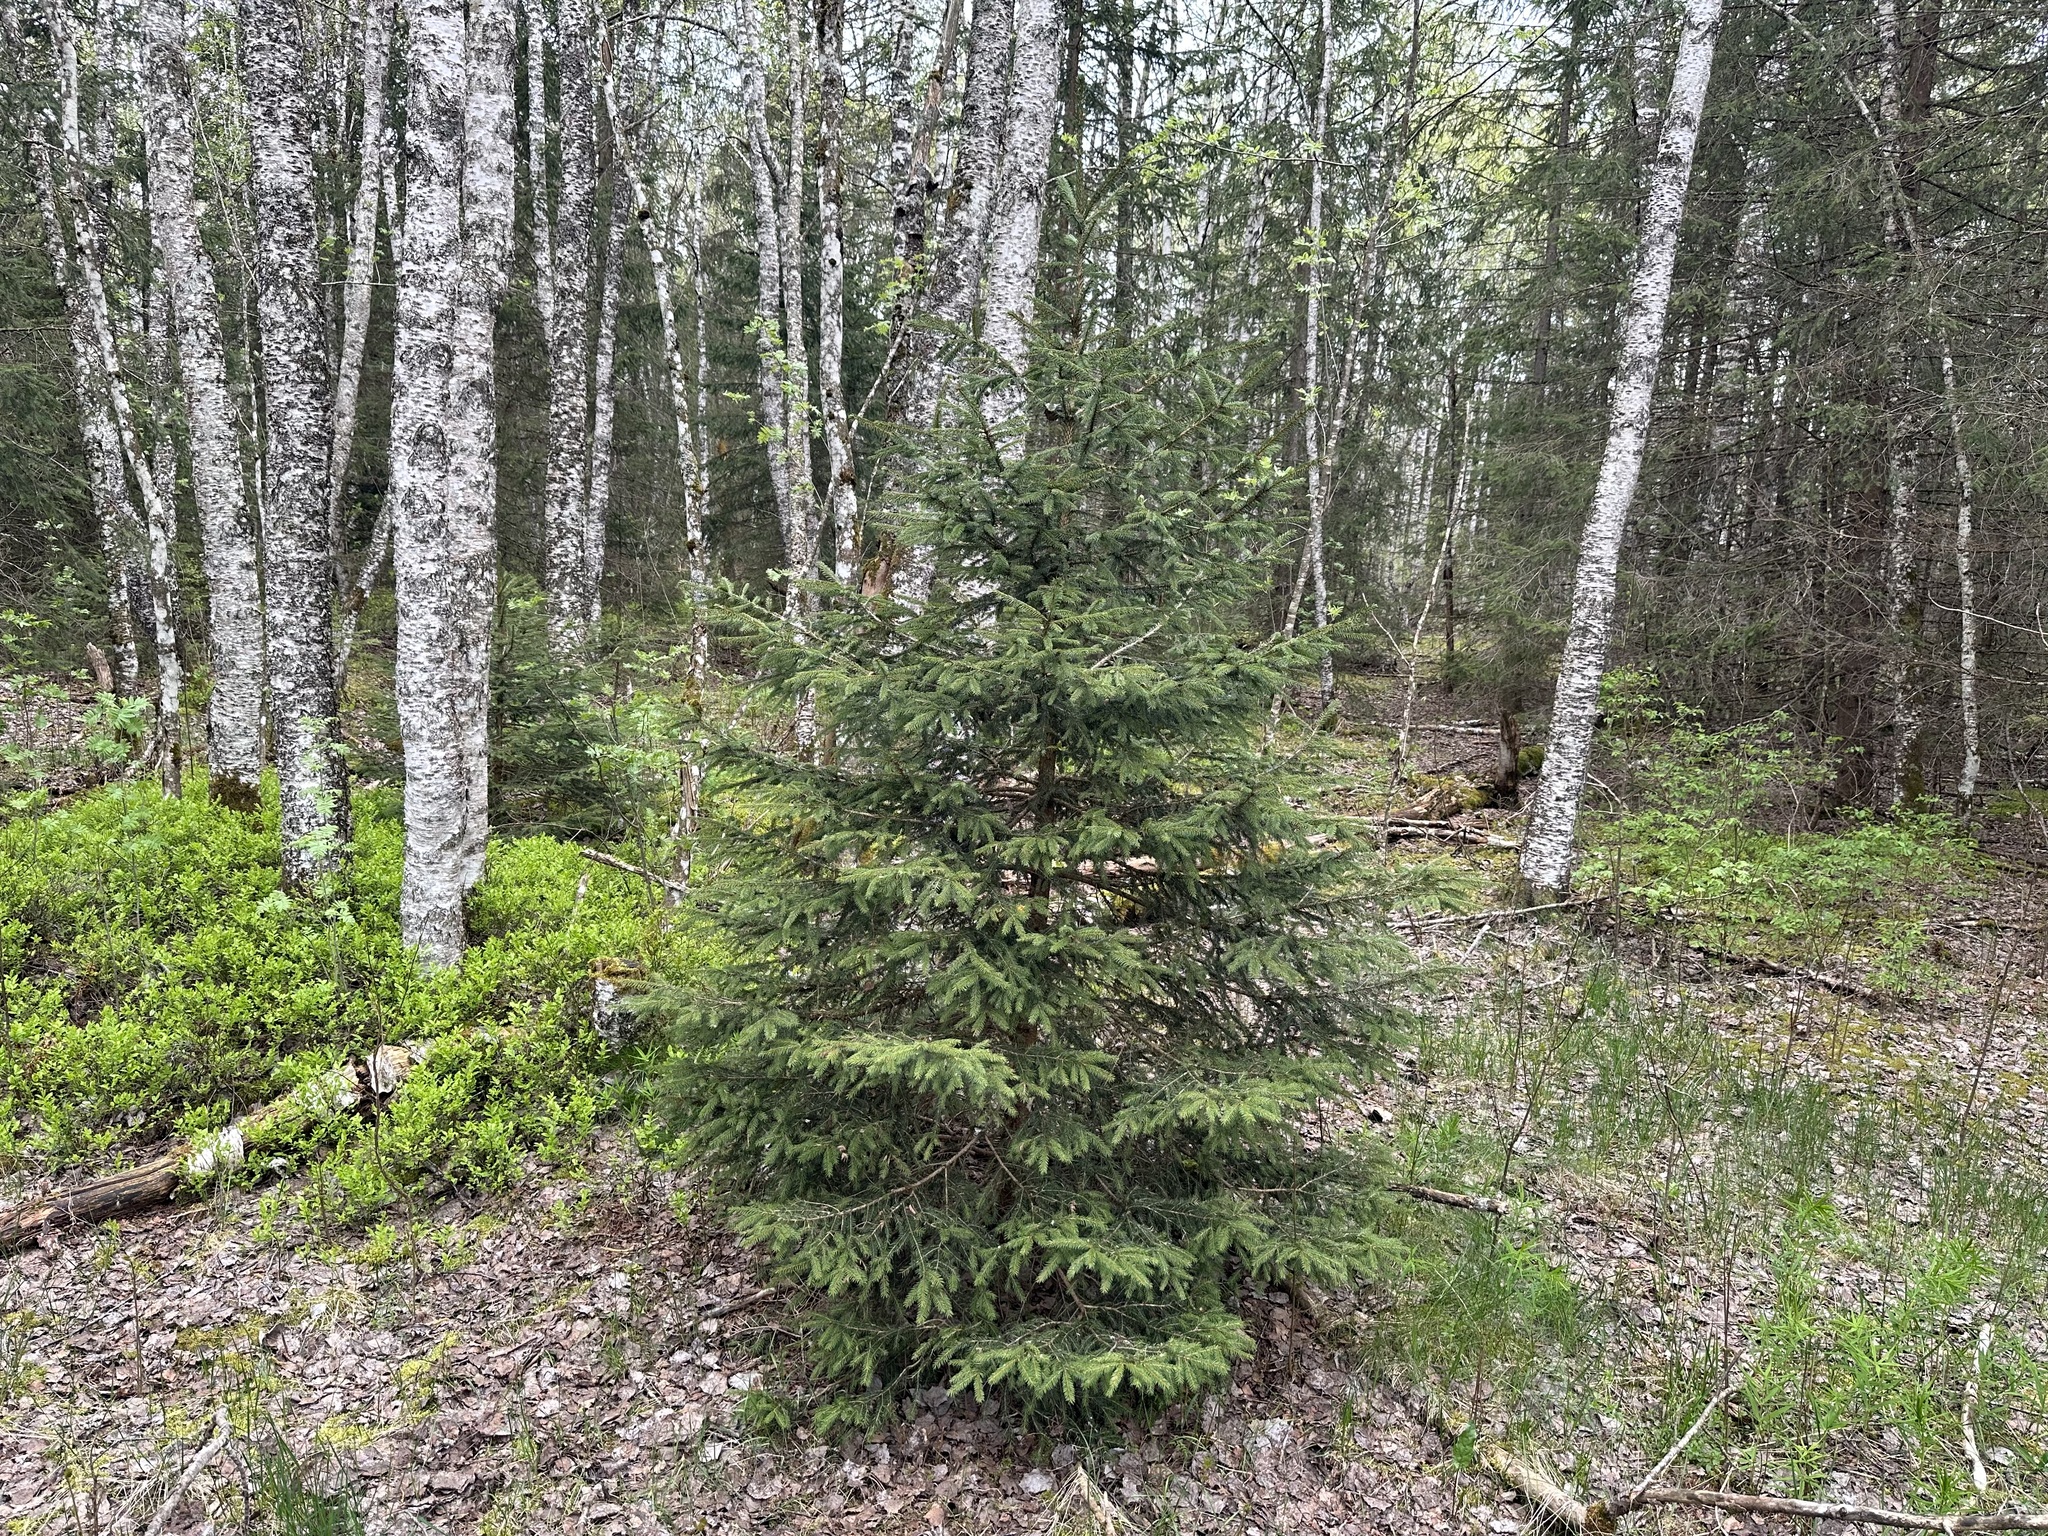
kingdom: Plantae
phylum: Tracheophyta
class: Pinopsida
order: Pinales
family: Pinaceae
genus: Picea
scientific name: Picea abies
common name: Norway spruce
